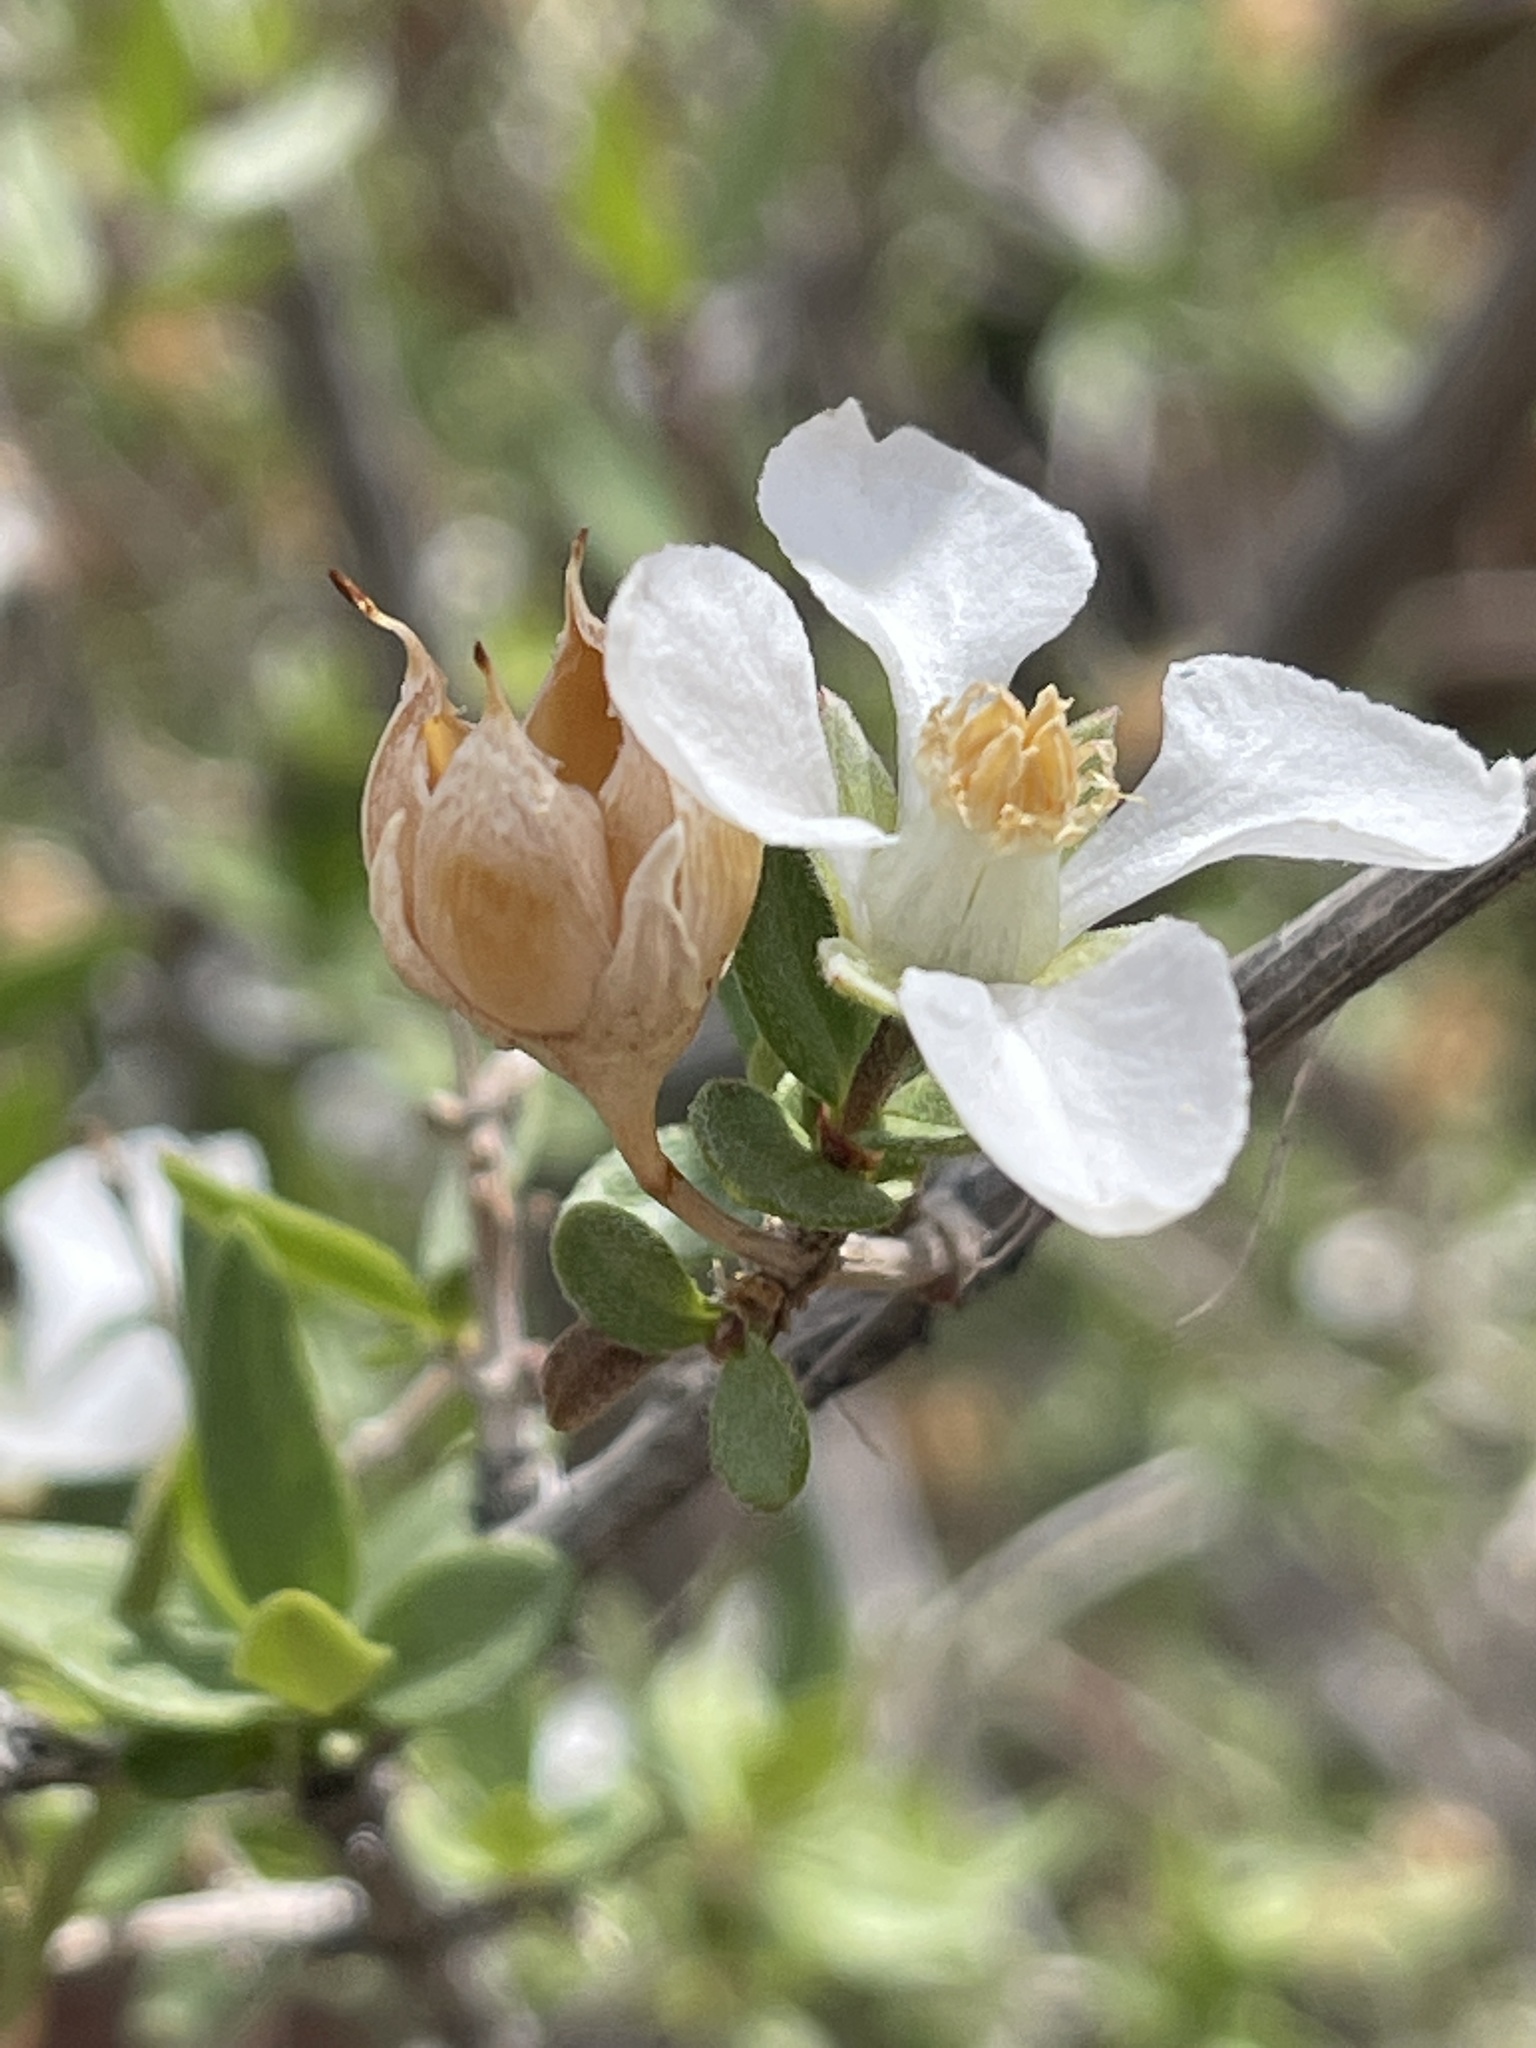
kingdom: Plantae
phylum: Tracheophyta
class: Magnoliopsida
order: Cornales
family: Hydrangeaceae
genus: Fendlera
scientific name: Fendlera rupicola
